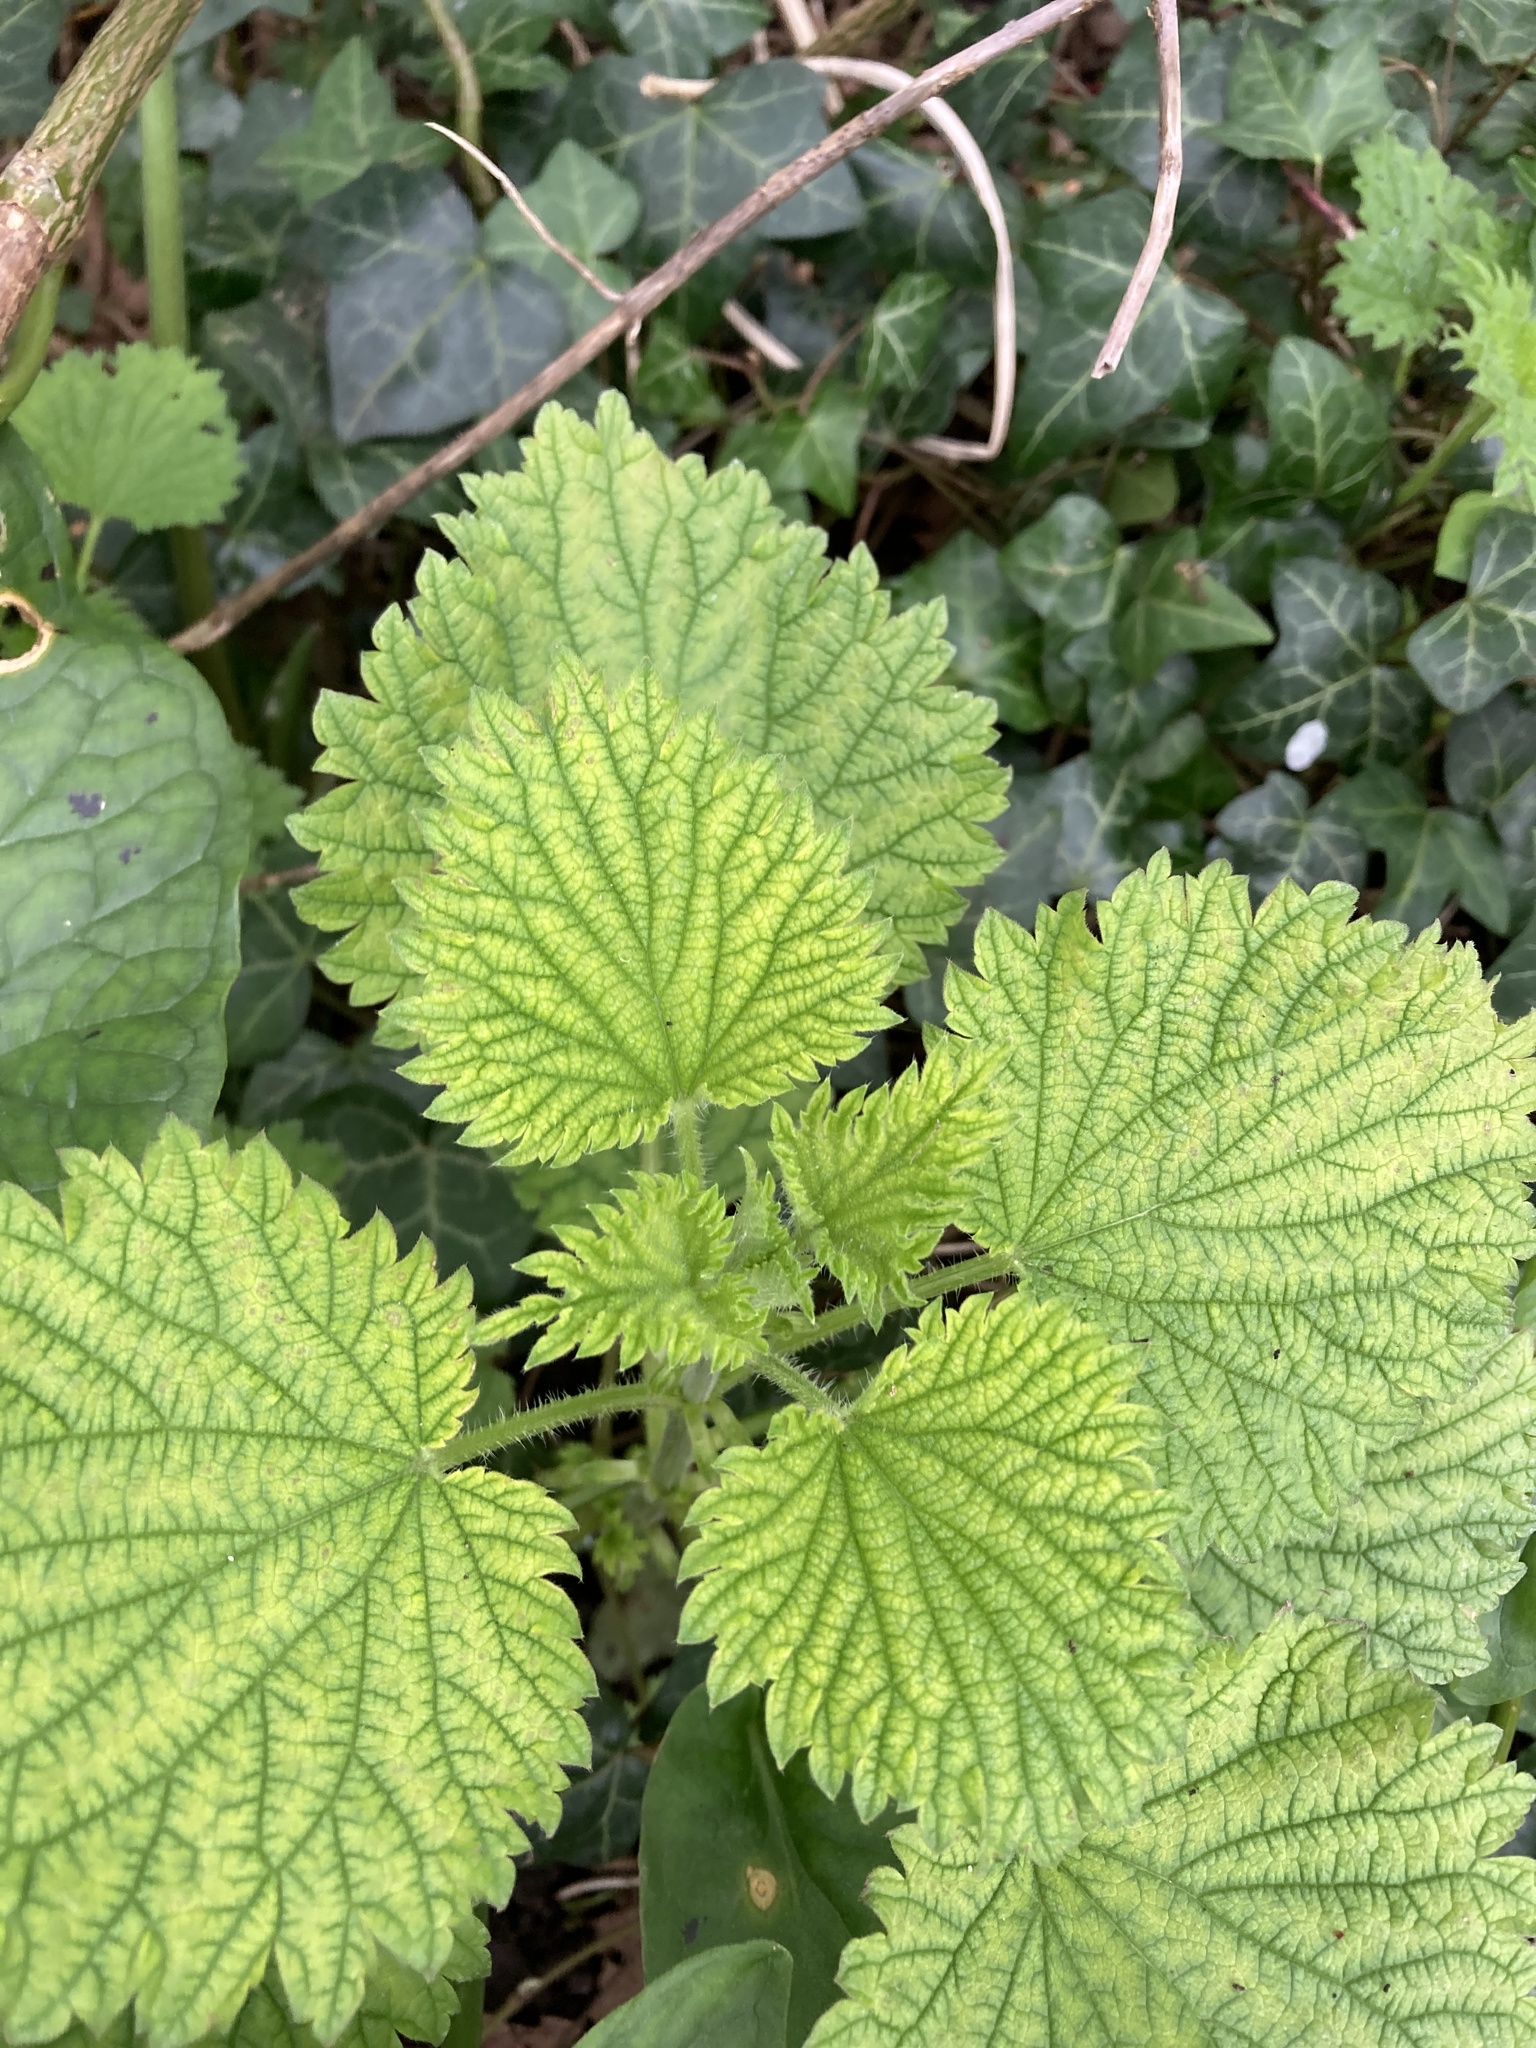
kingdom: Plantae
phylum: Tracheophyta
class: Magnoliopsida
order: Rosales
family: Urticaceae
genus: Urtica
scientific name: Urtica dioica
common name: Common nettle
